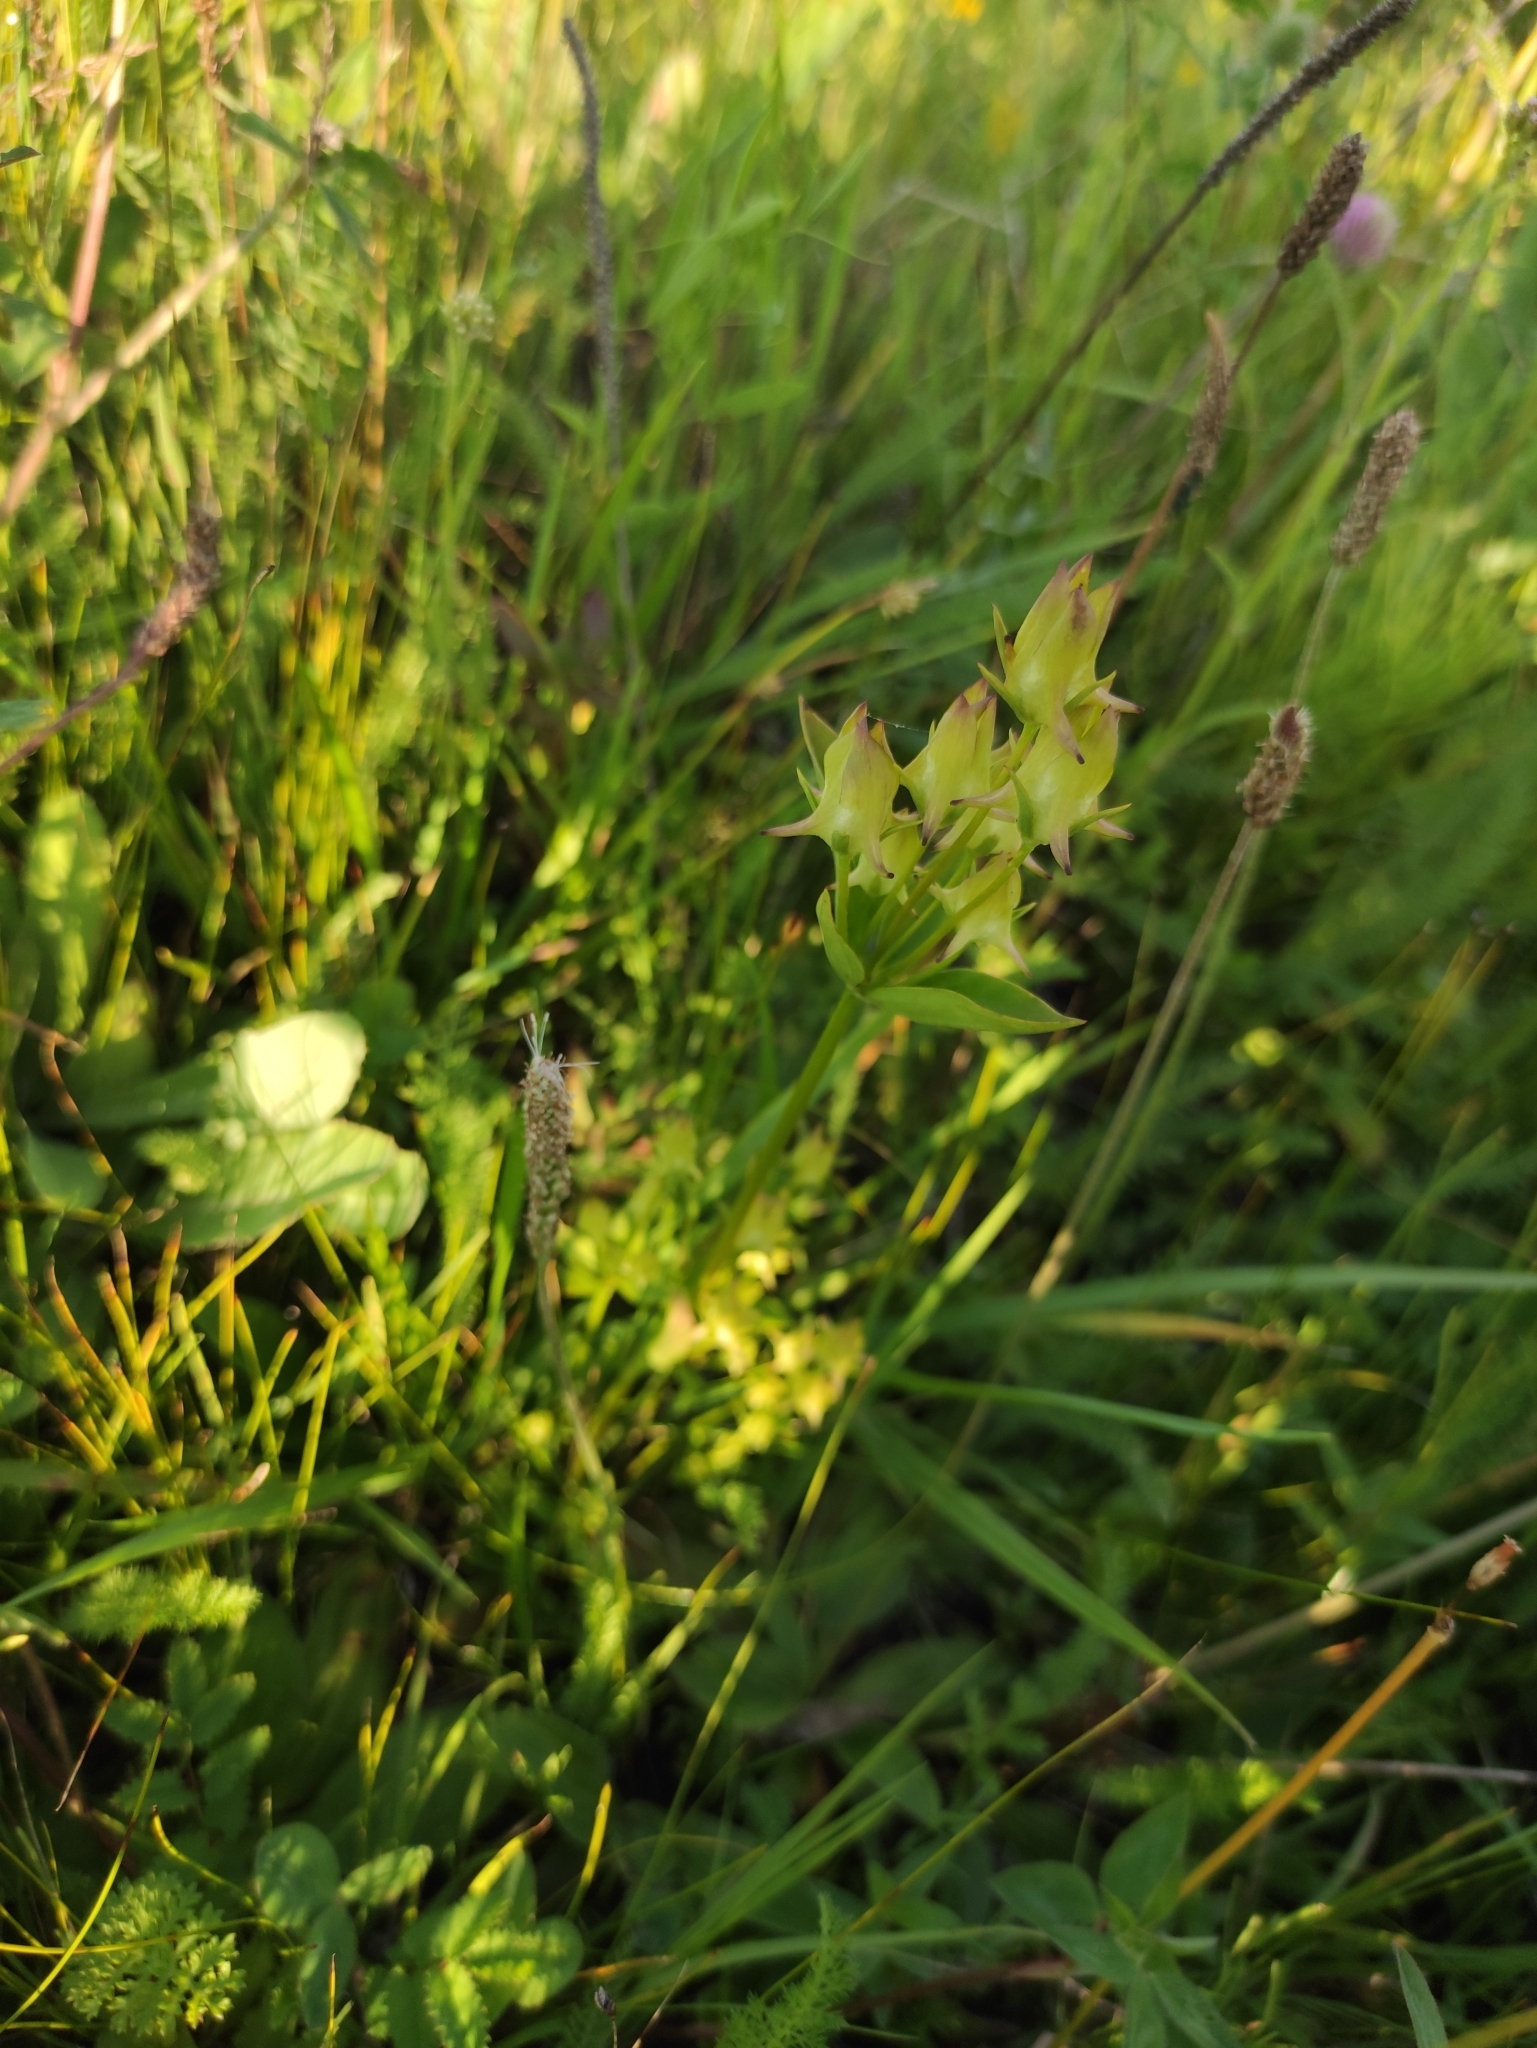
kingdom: Plantae
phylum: Tracheophyta
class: Magnoliopsida
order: Gentianales
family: Gentianaceae
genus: Halenia
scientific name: Halenia corniculata
